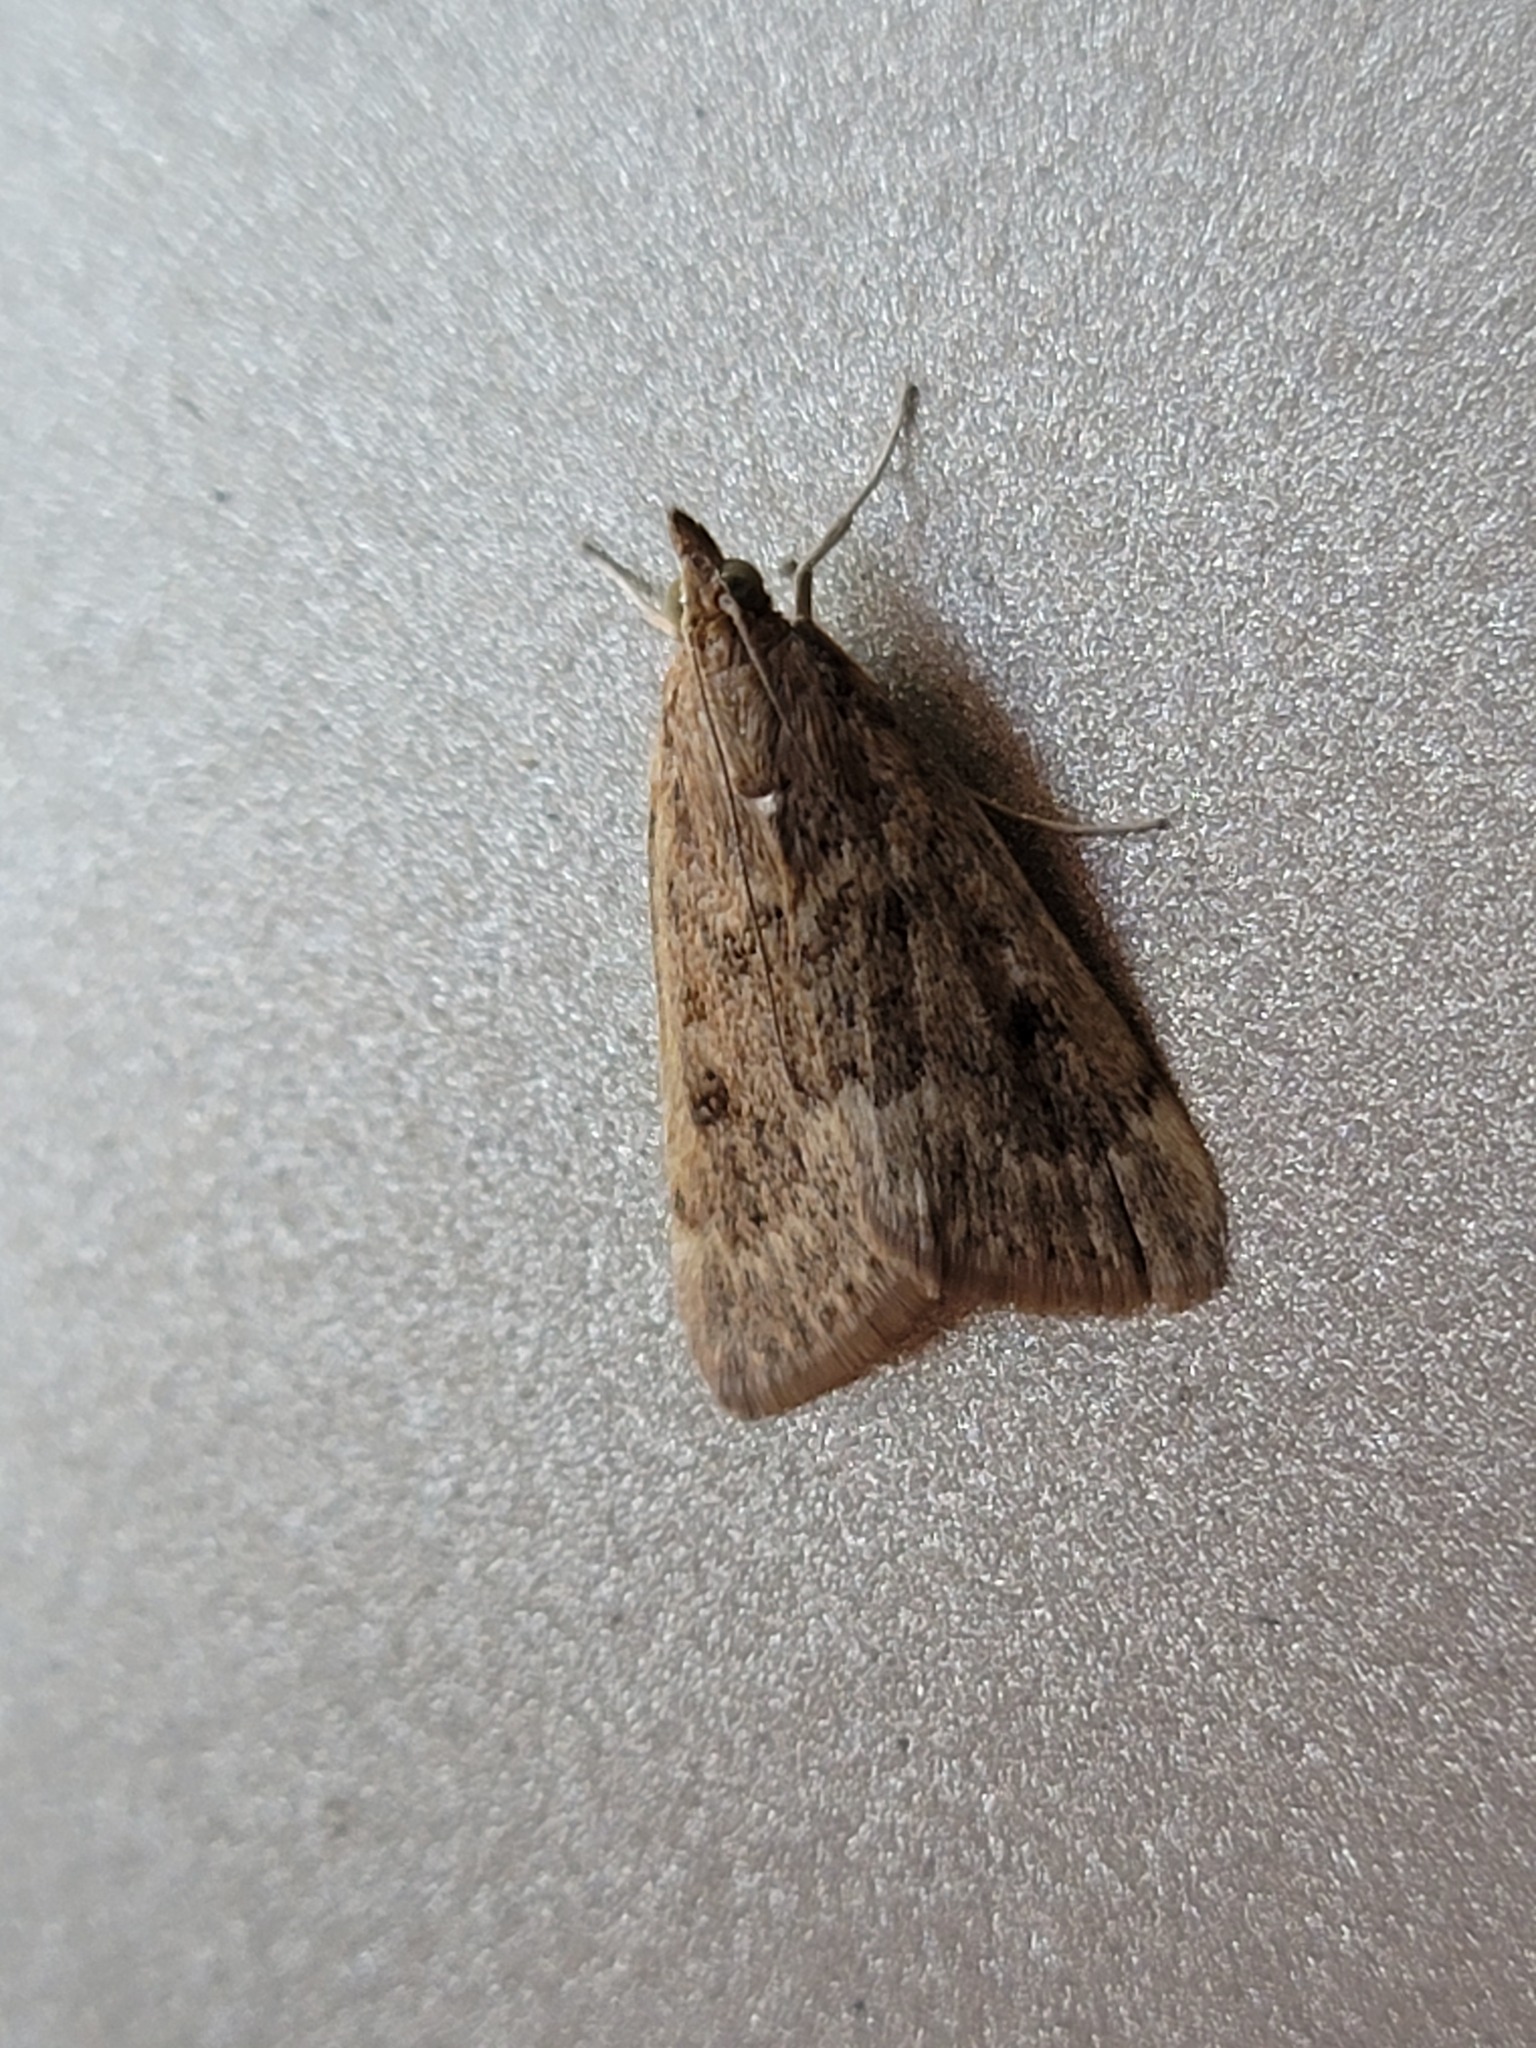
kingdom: Animalia
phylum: Arthropoda
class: Insecta
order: Lepidoptera
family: Crambidae
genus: Achyra
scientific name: Achyra rantalis
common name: Garden webworm
